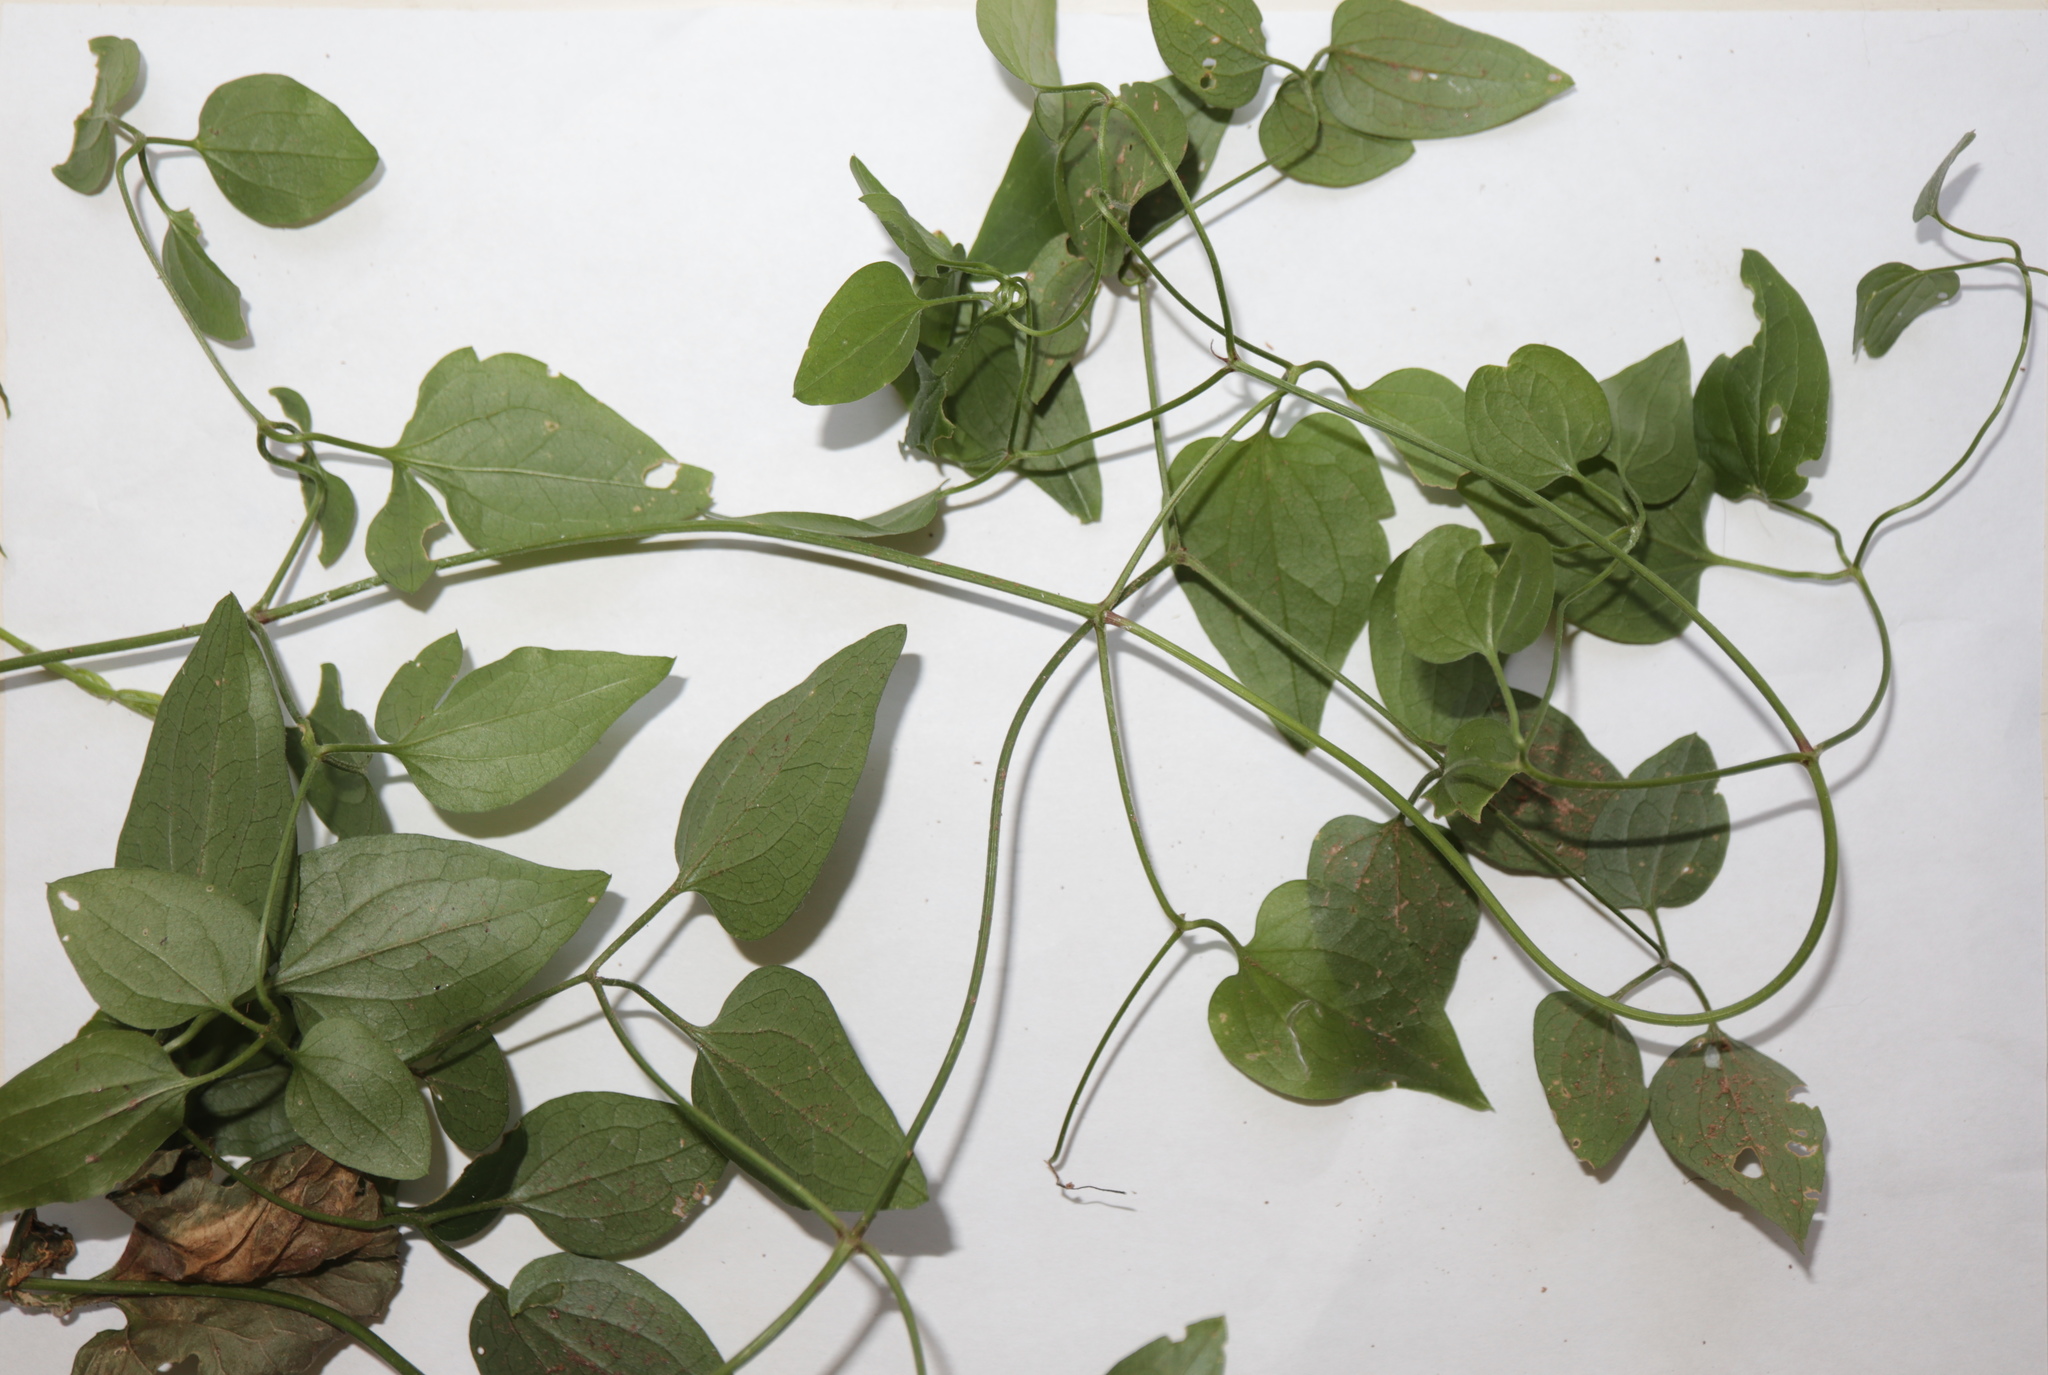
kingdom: Plantae
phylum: Tracheophyta
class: Magnoliopsida
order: Ranunculales
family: Ranunculaceae
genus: Clematis
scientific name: Clematis terniflora
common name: Sweet autumn clematis
